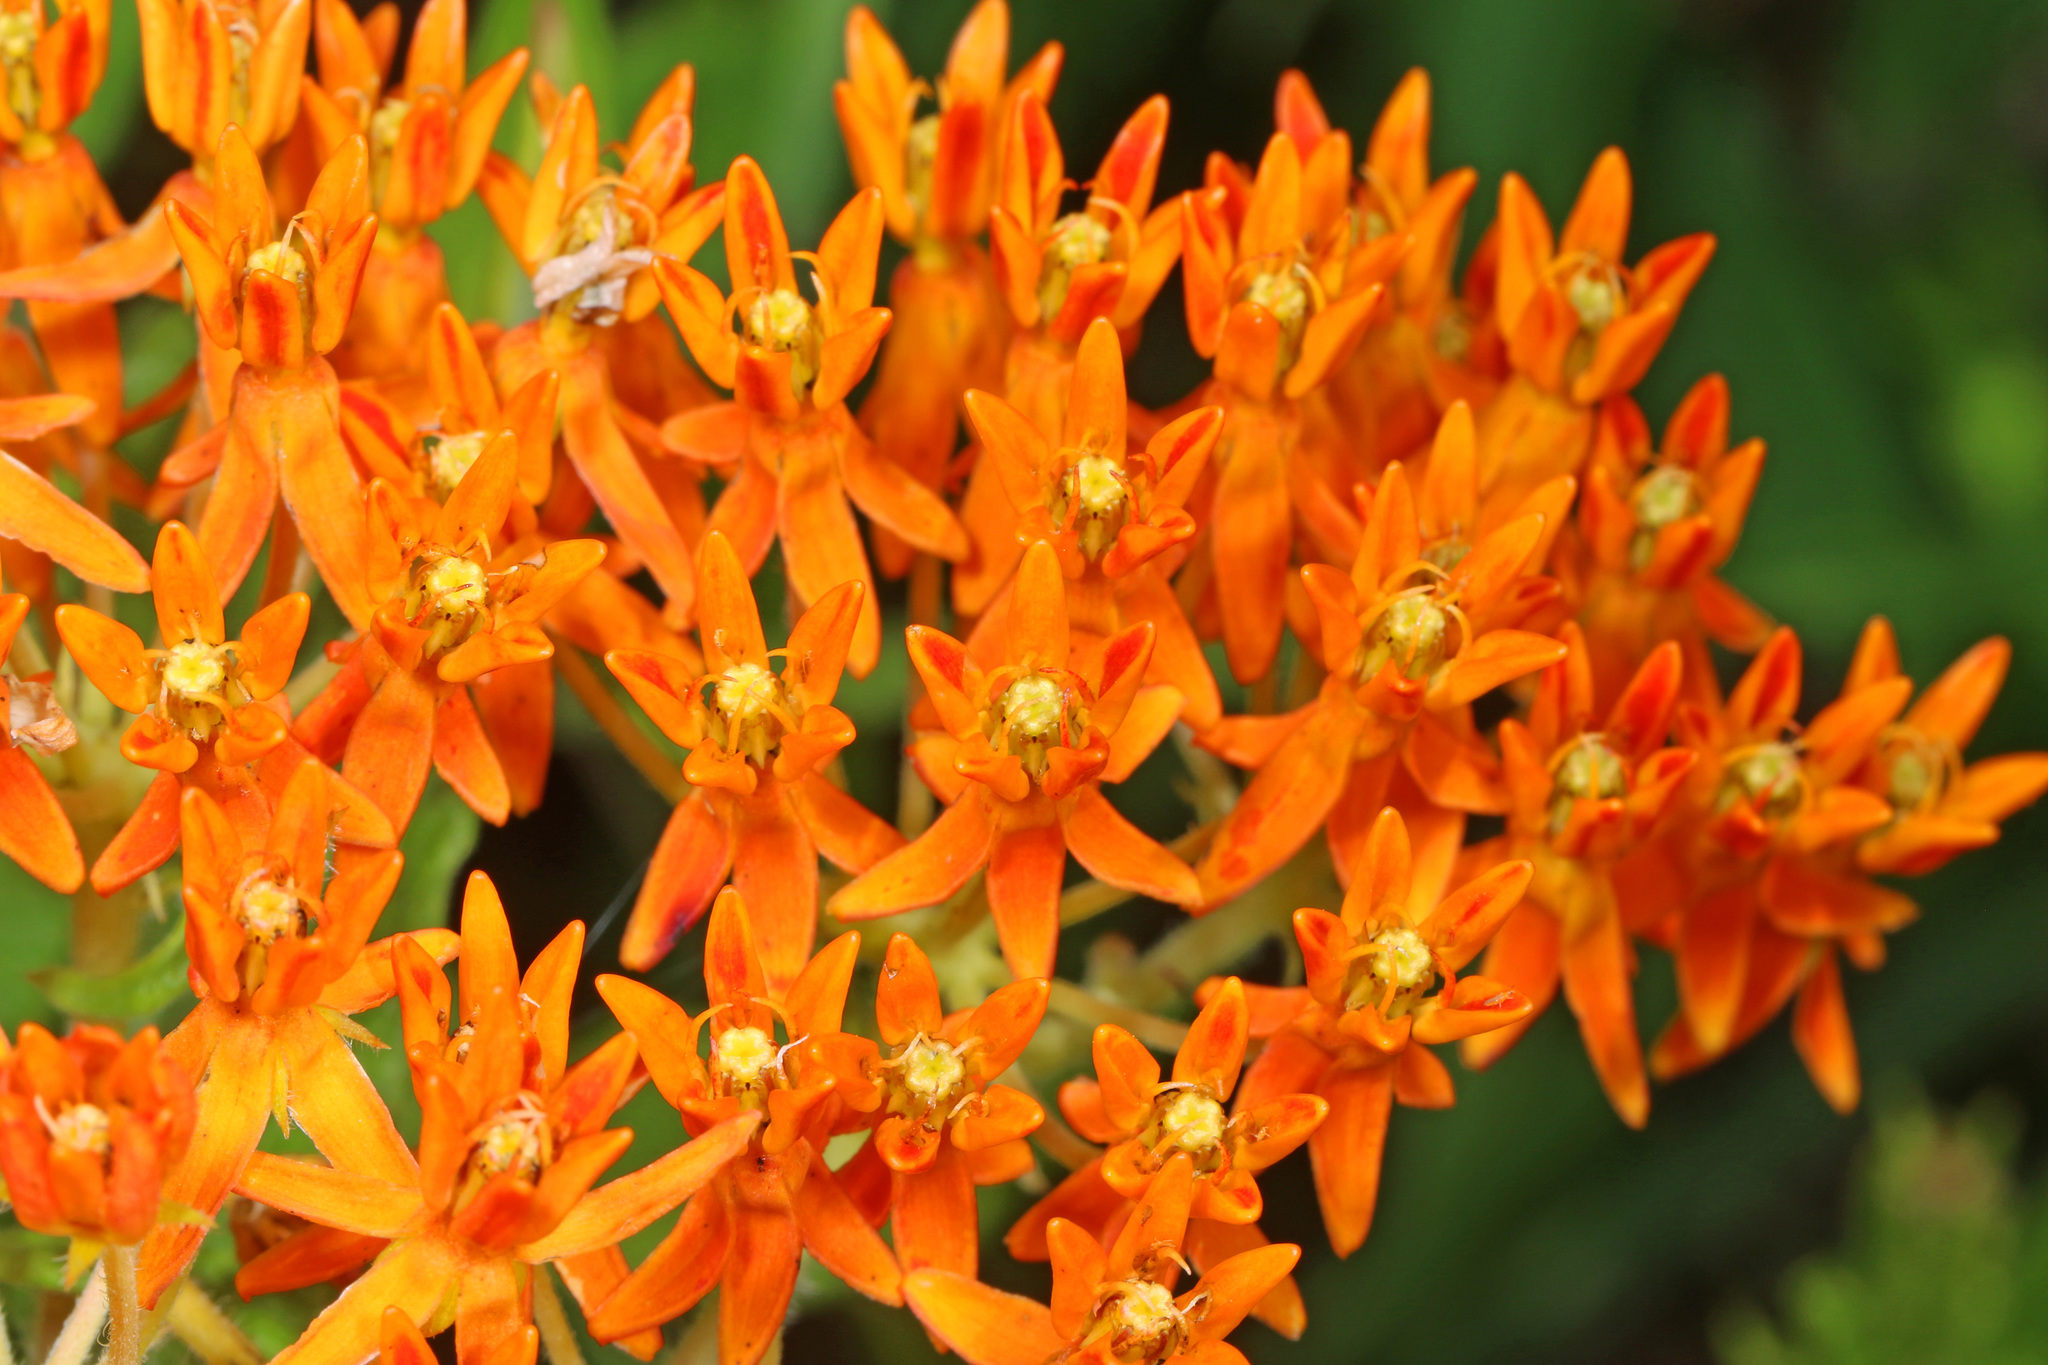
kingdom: Plantae
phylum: Tracheophyta
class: Magnoliopsida
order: Gentianales
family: Apocynaceae
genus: Asclepias
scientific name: Asclepias tuberosa
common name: Butterfly milkweed
